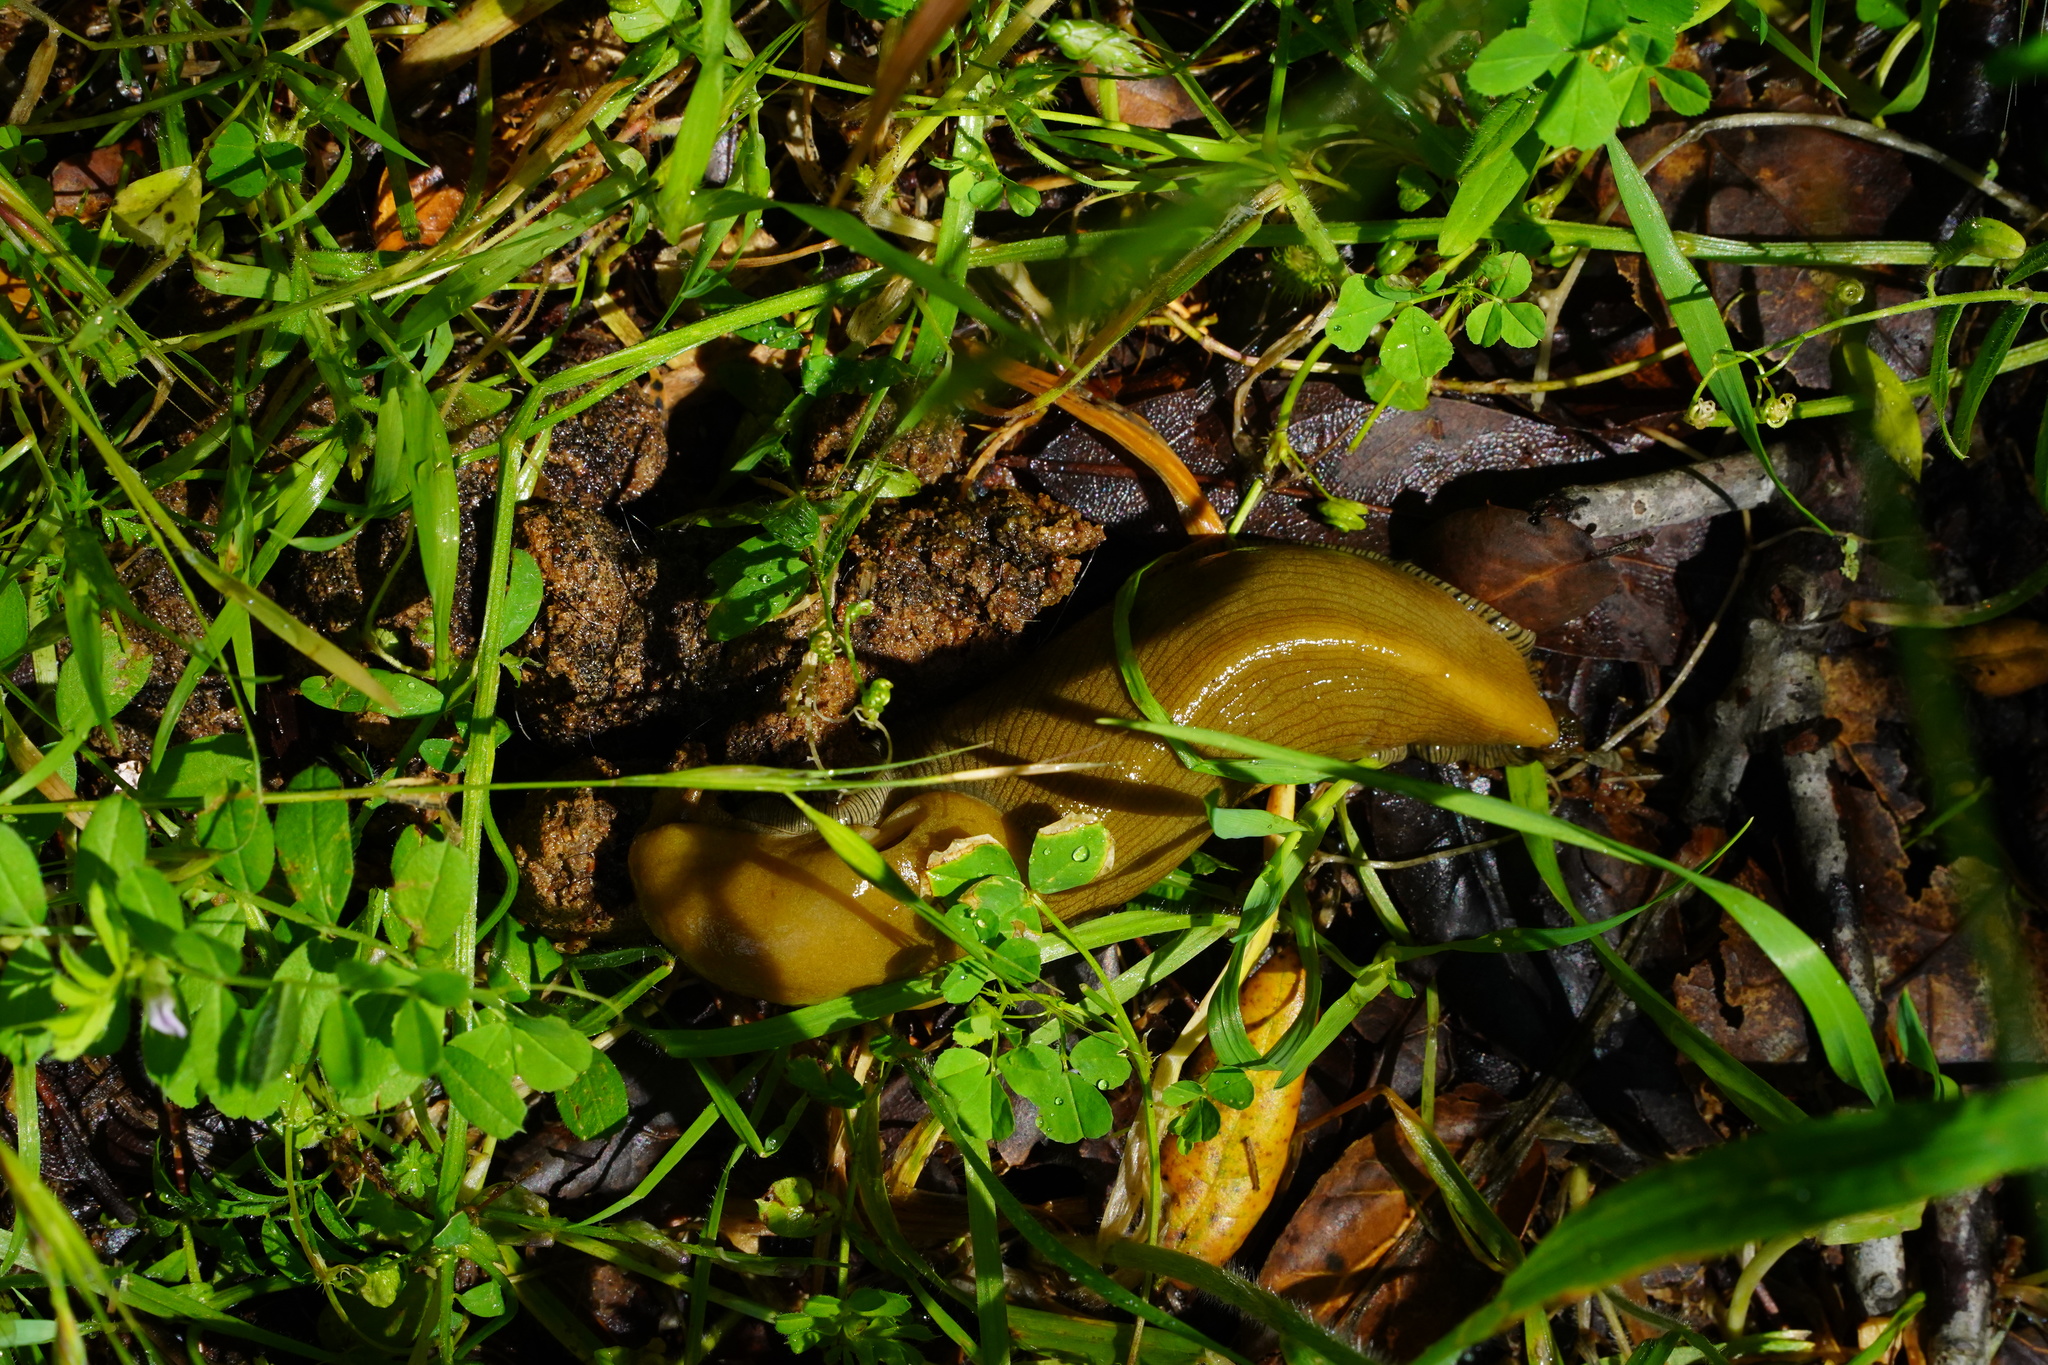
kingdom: Animalia
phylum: Mollusca
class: Gastropoda
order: Stylommatophora
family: Ariolimacidae
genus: Ariolimax
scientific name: Ariolimax buttoni
